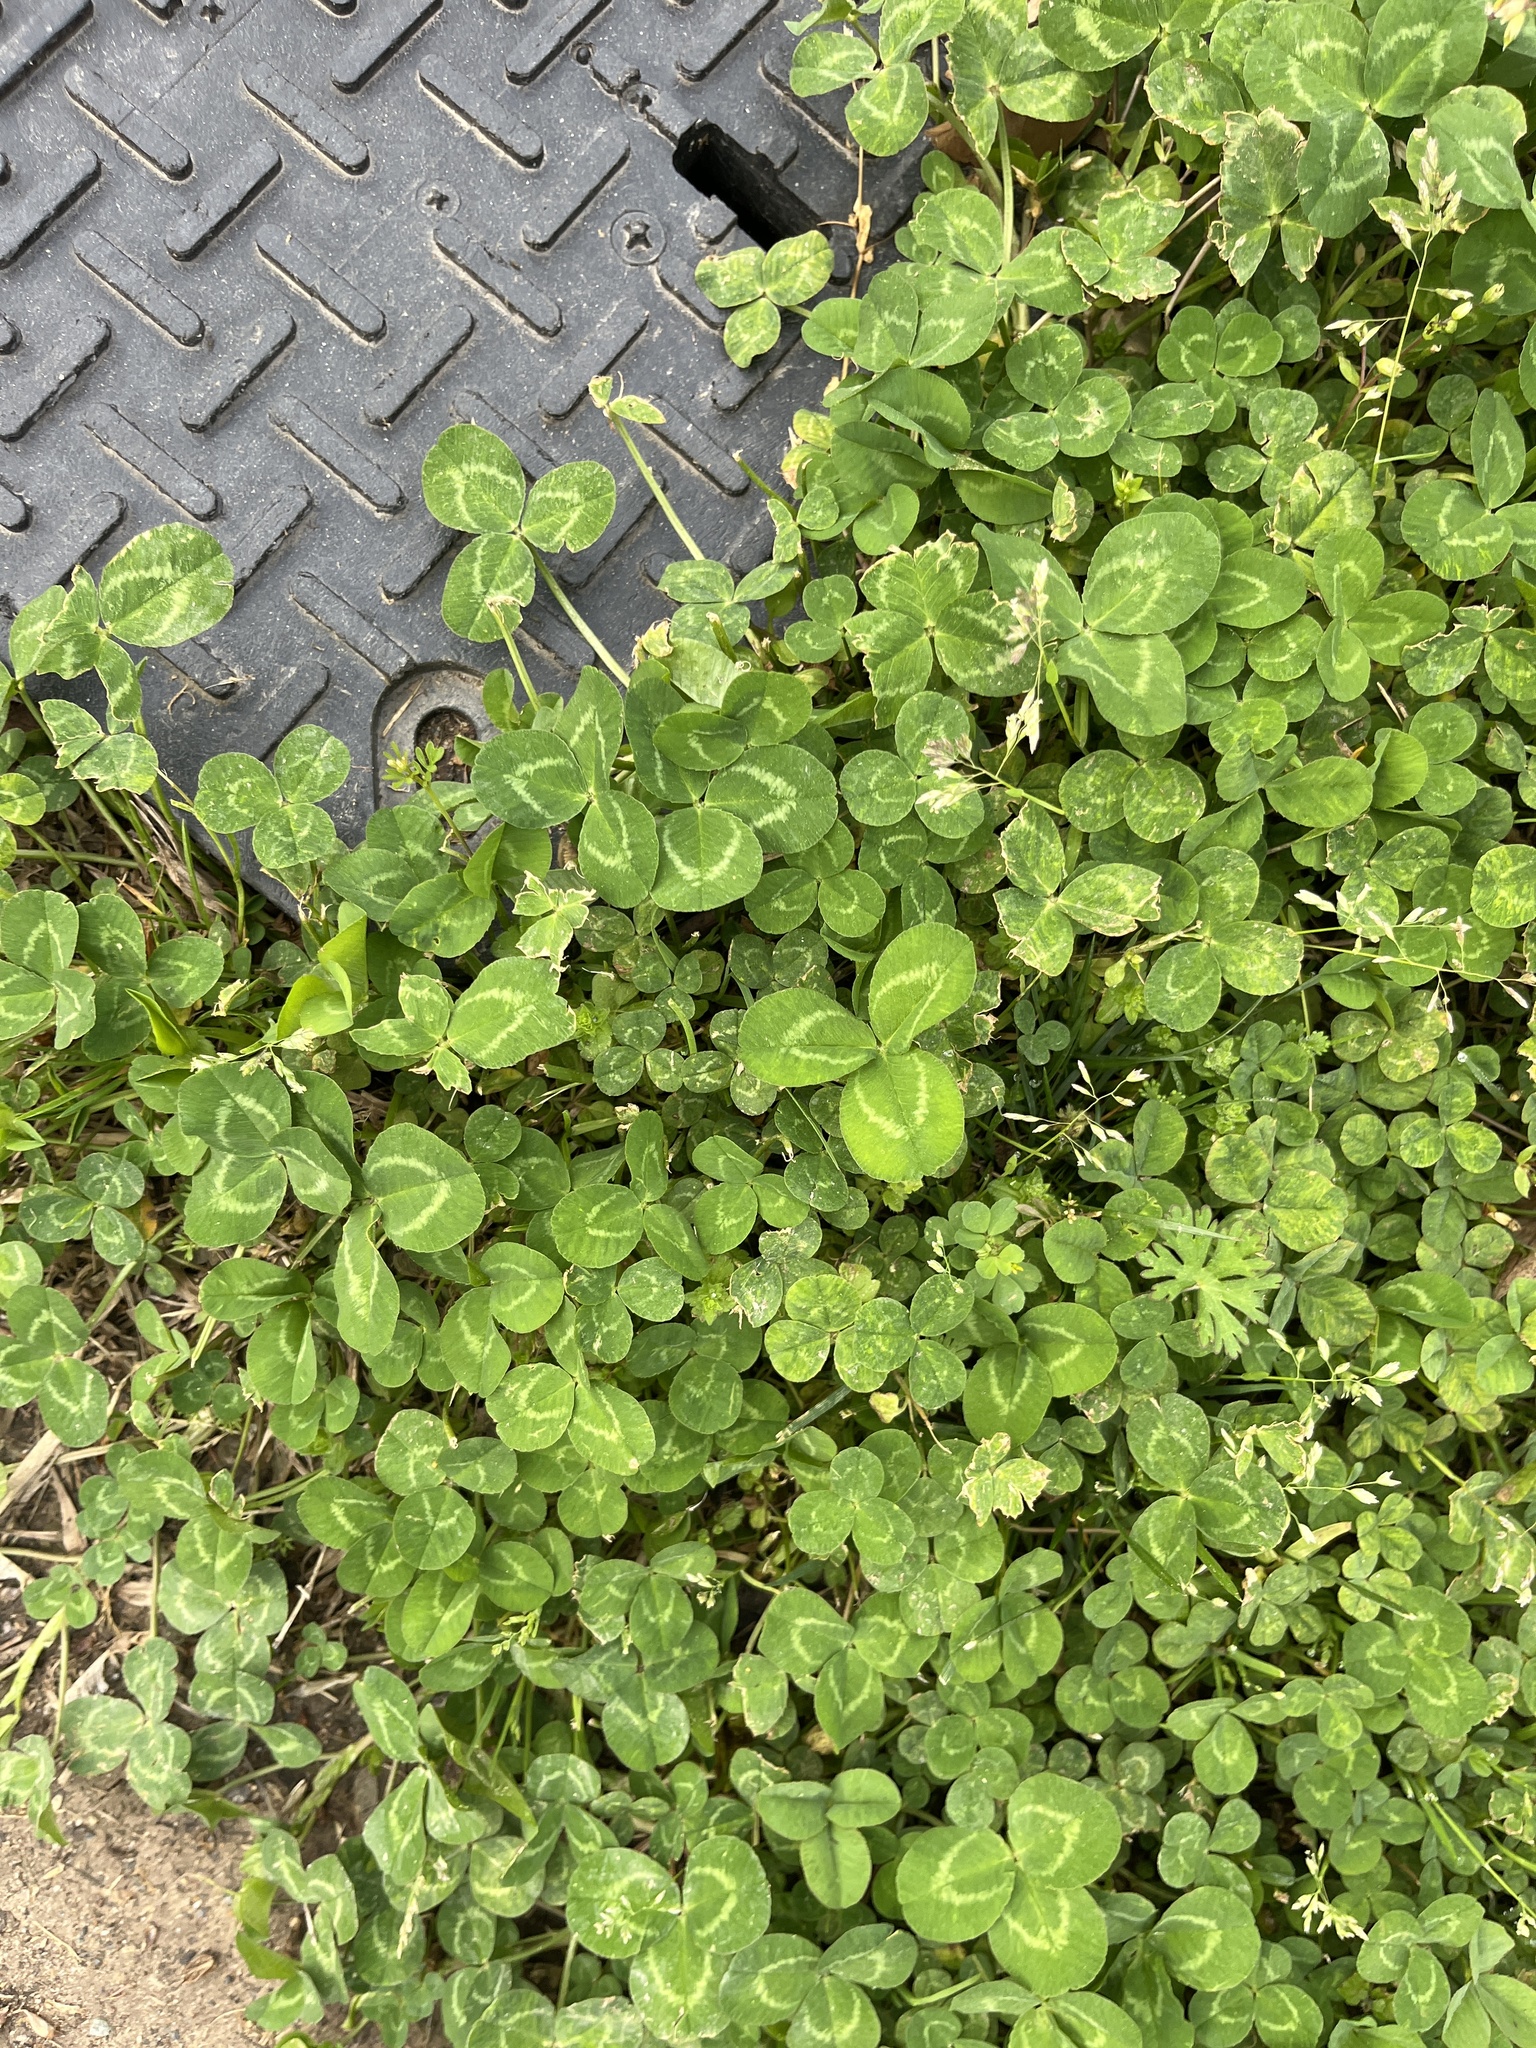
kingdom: Plantae
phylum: Tracheophyta
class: Magnoliopsida
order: Fabales
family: Fabaceae
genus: Trifolium
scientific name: Trifolium repens
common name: White clover
